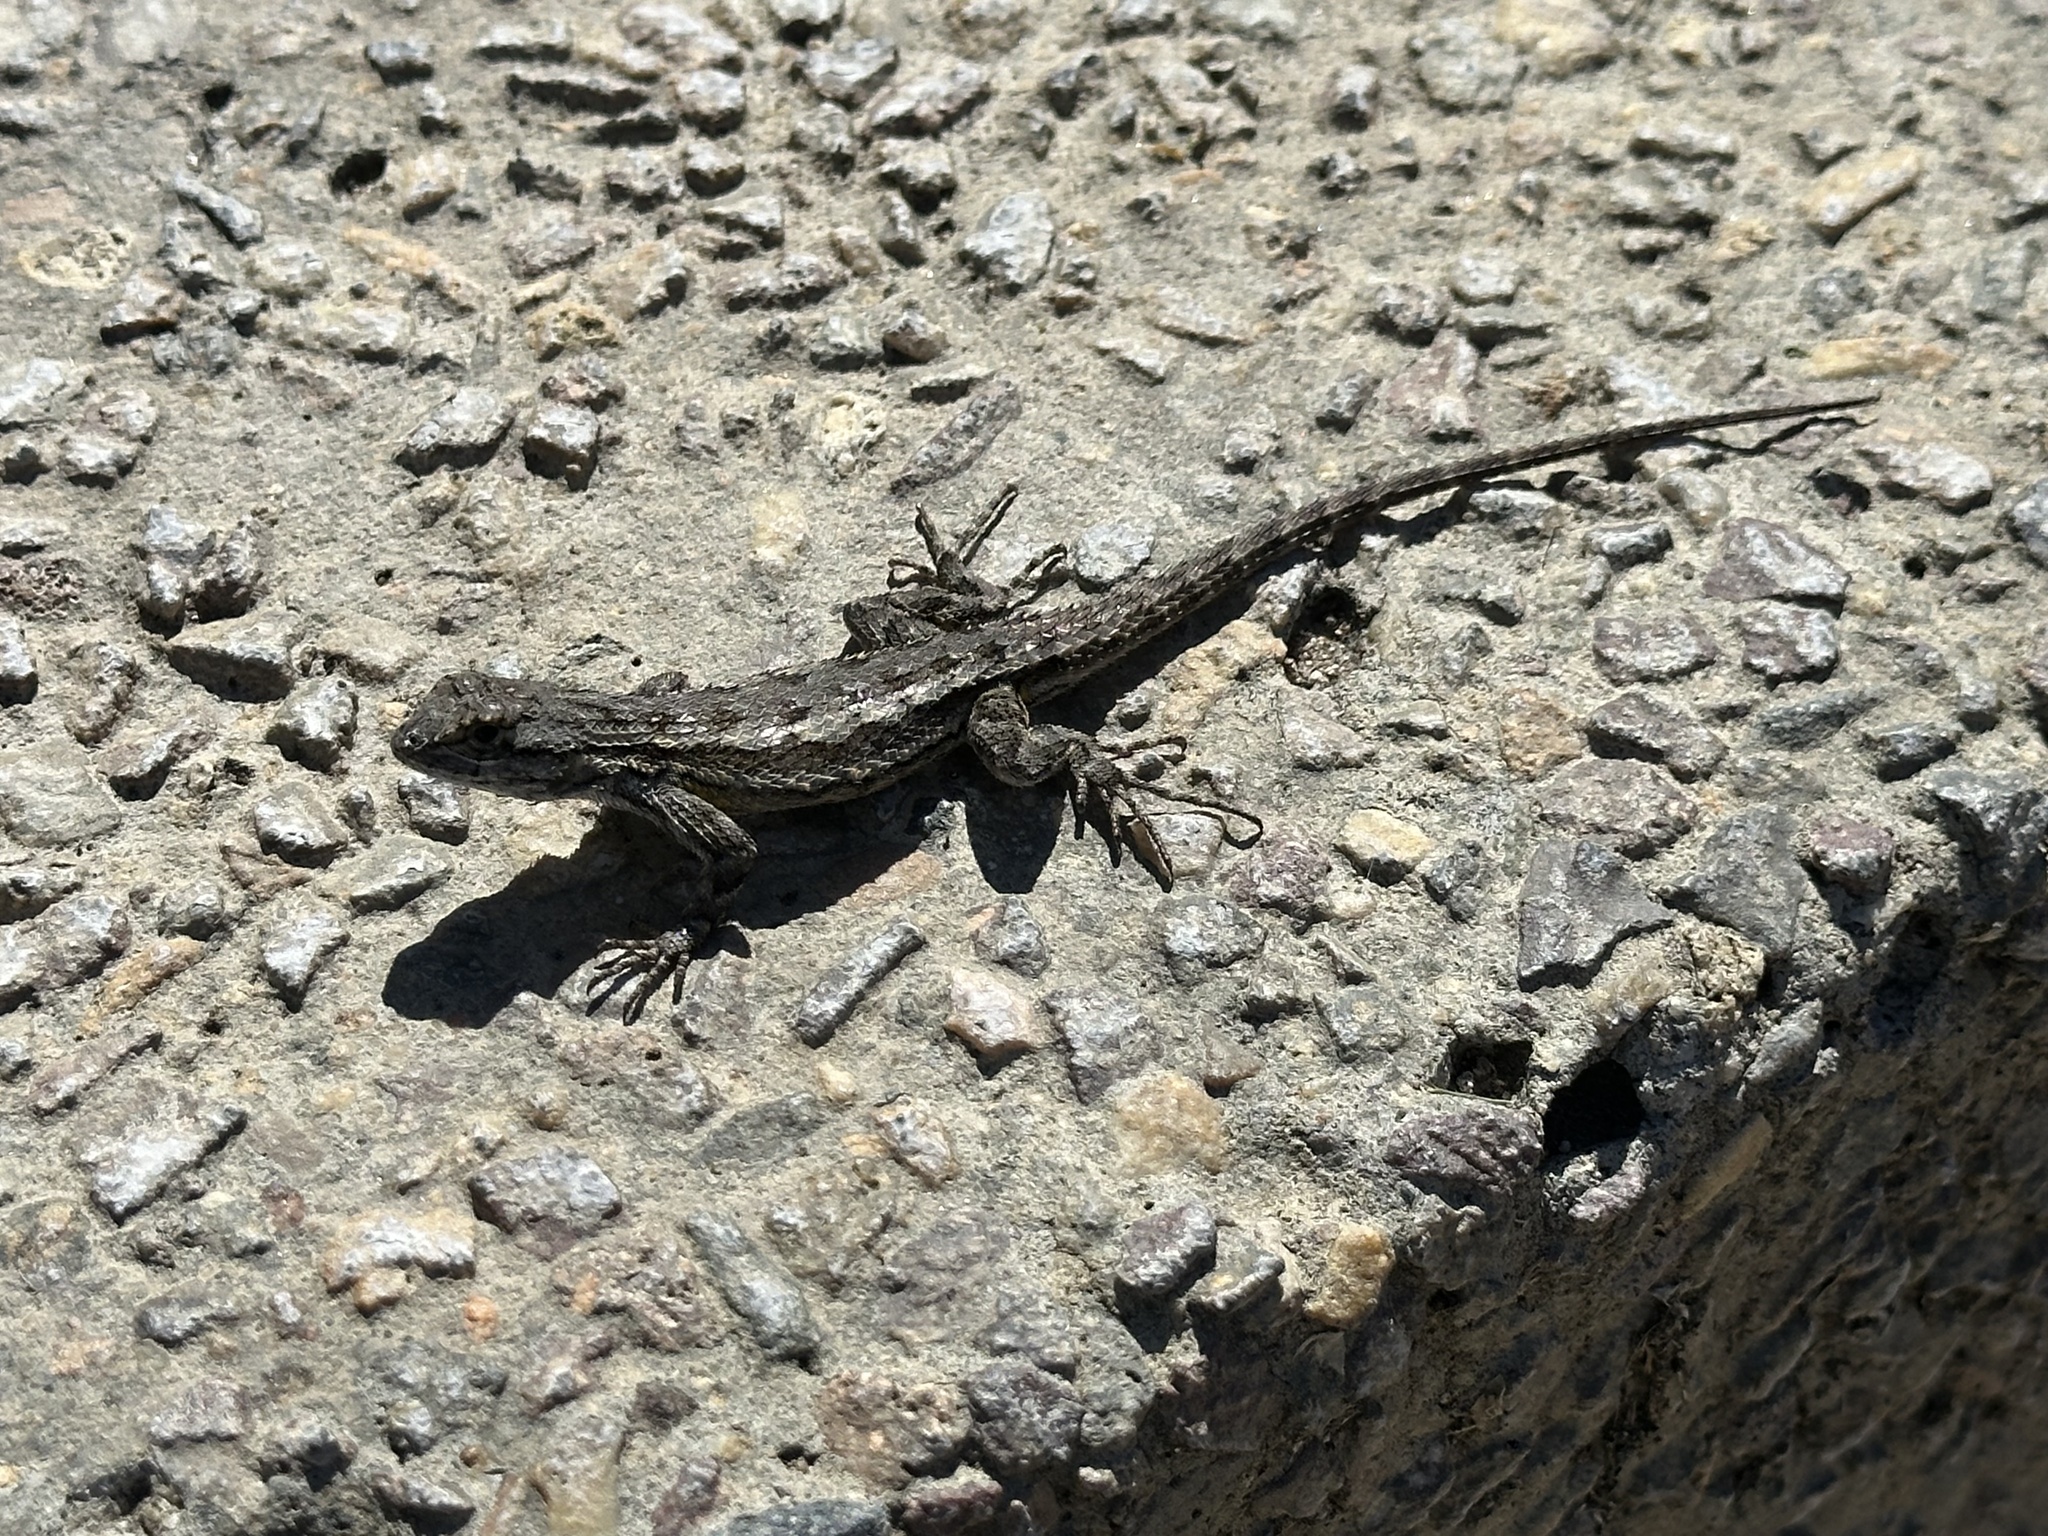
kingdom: Animalia
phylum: Chordata
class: Squamata
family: Phrynosomatidae
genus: Sceloporus
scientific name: Sceloporus occidentalis
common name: Western fence lizard
